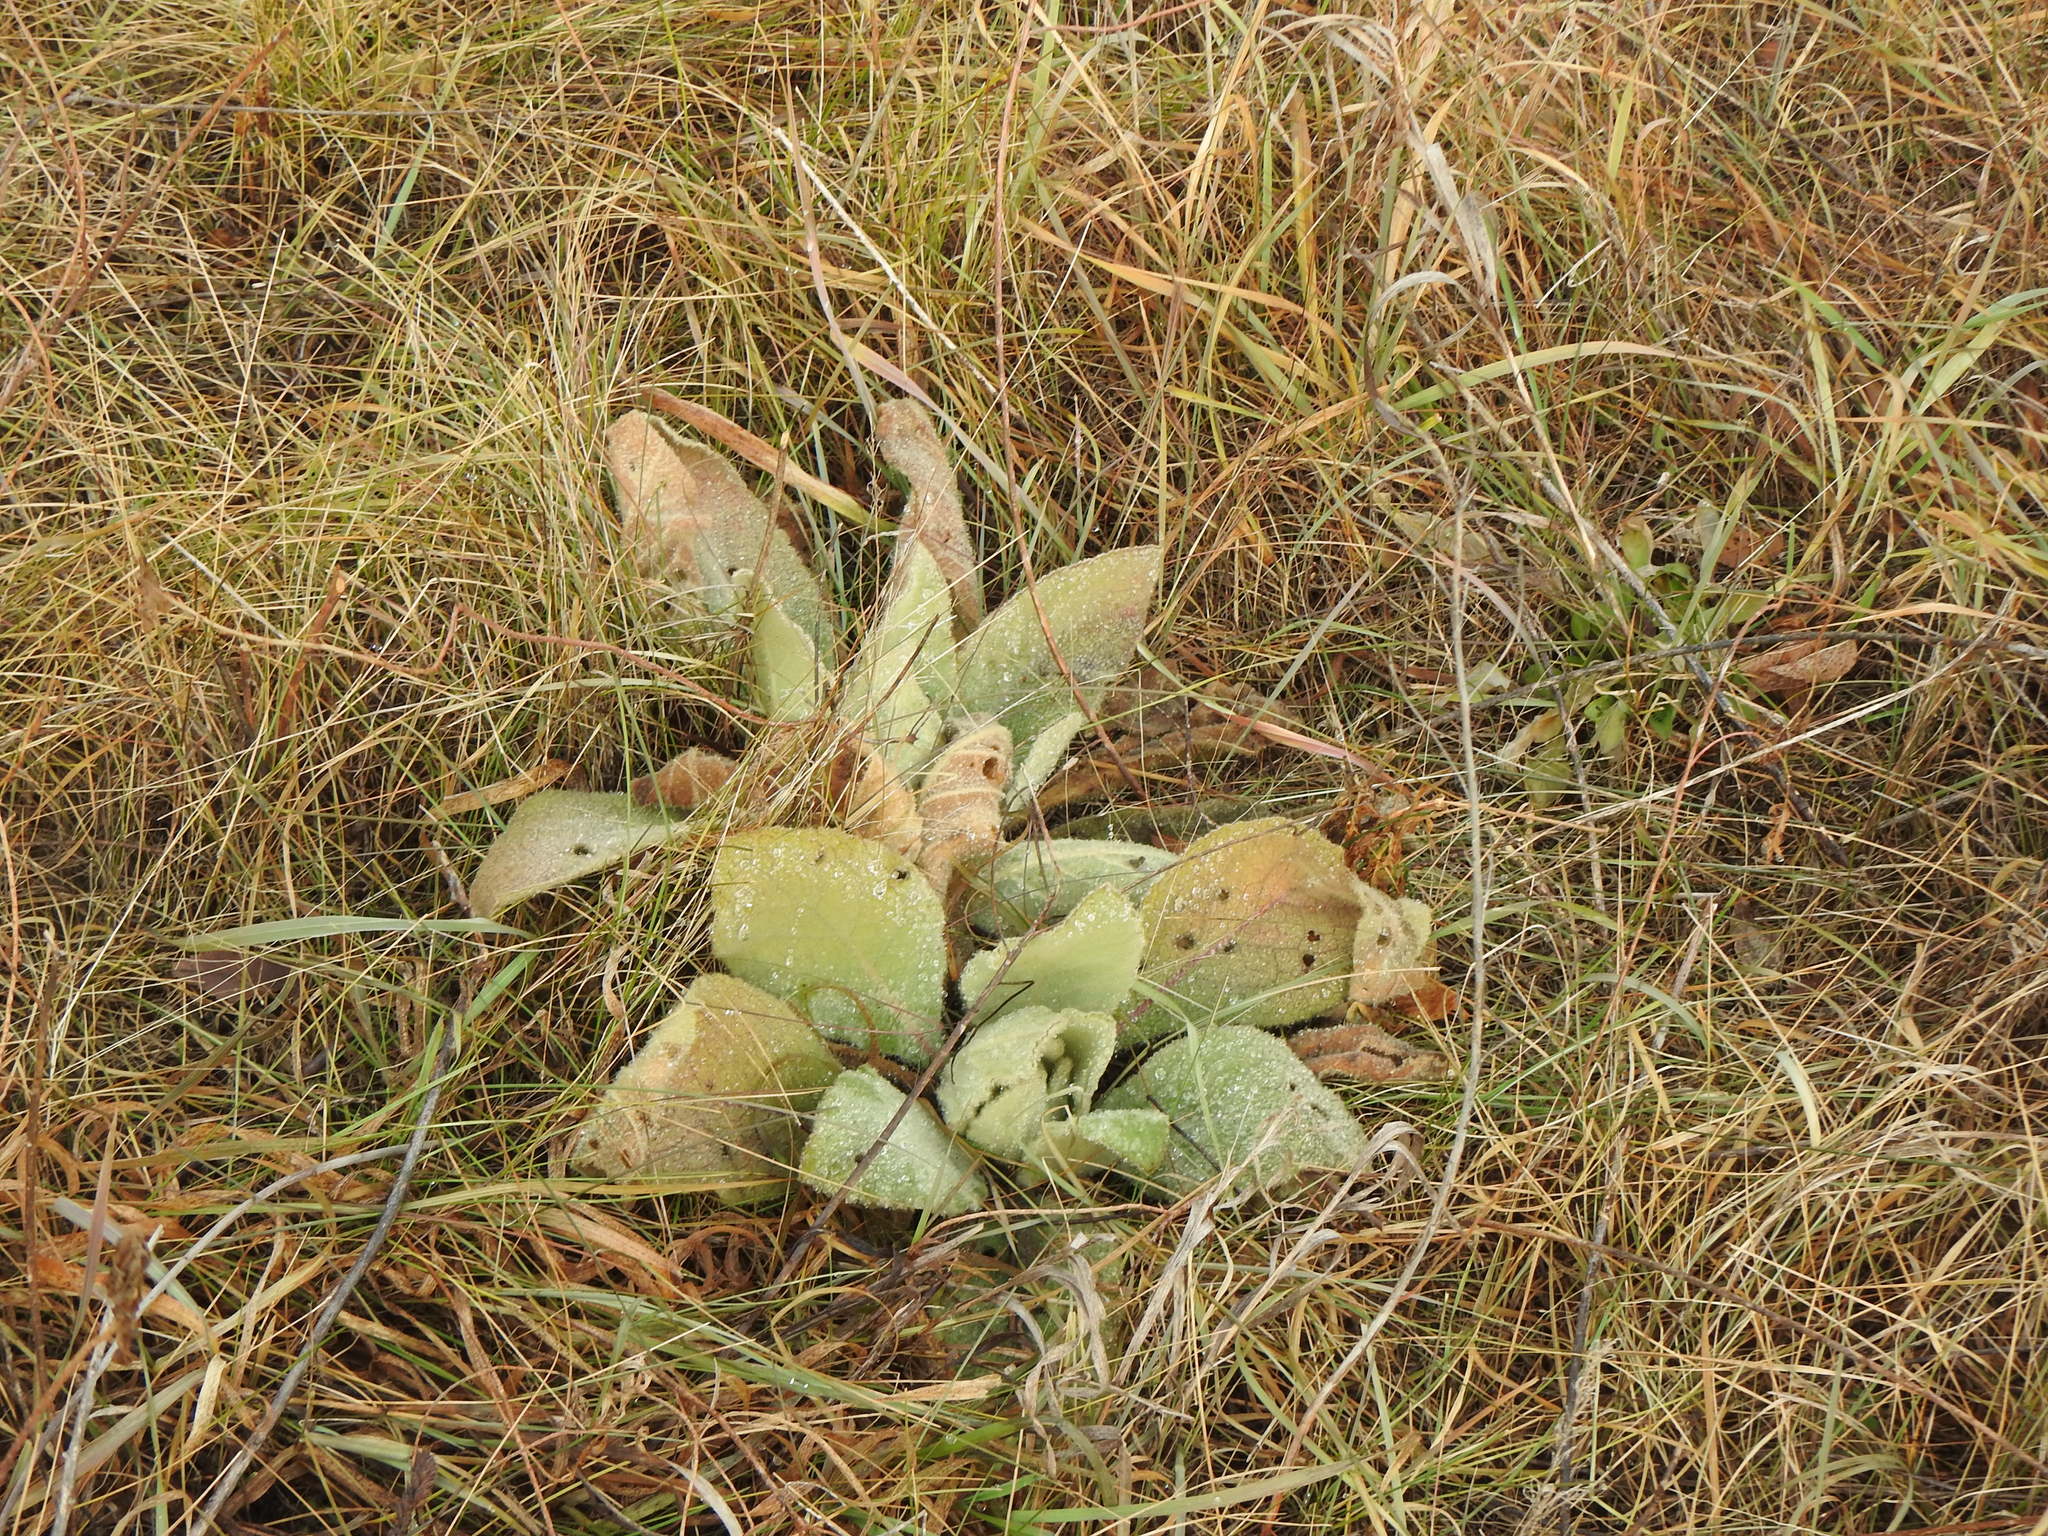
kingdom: Plantae
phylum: Tracheophyta
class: Magnoliopsida
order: Lamiales
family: Scrophulariaceae
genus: Verbascum
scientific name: Verbascum thapsus
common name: Common mullein
